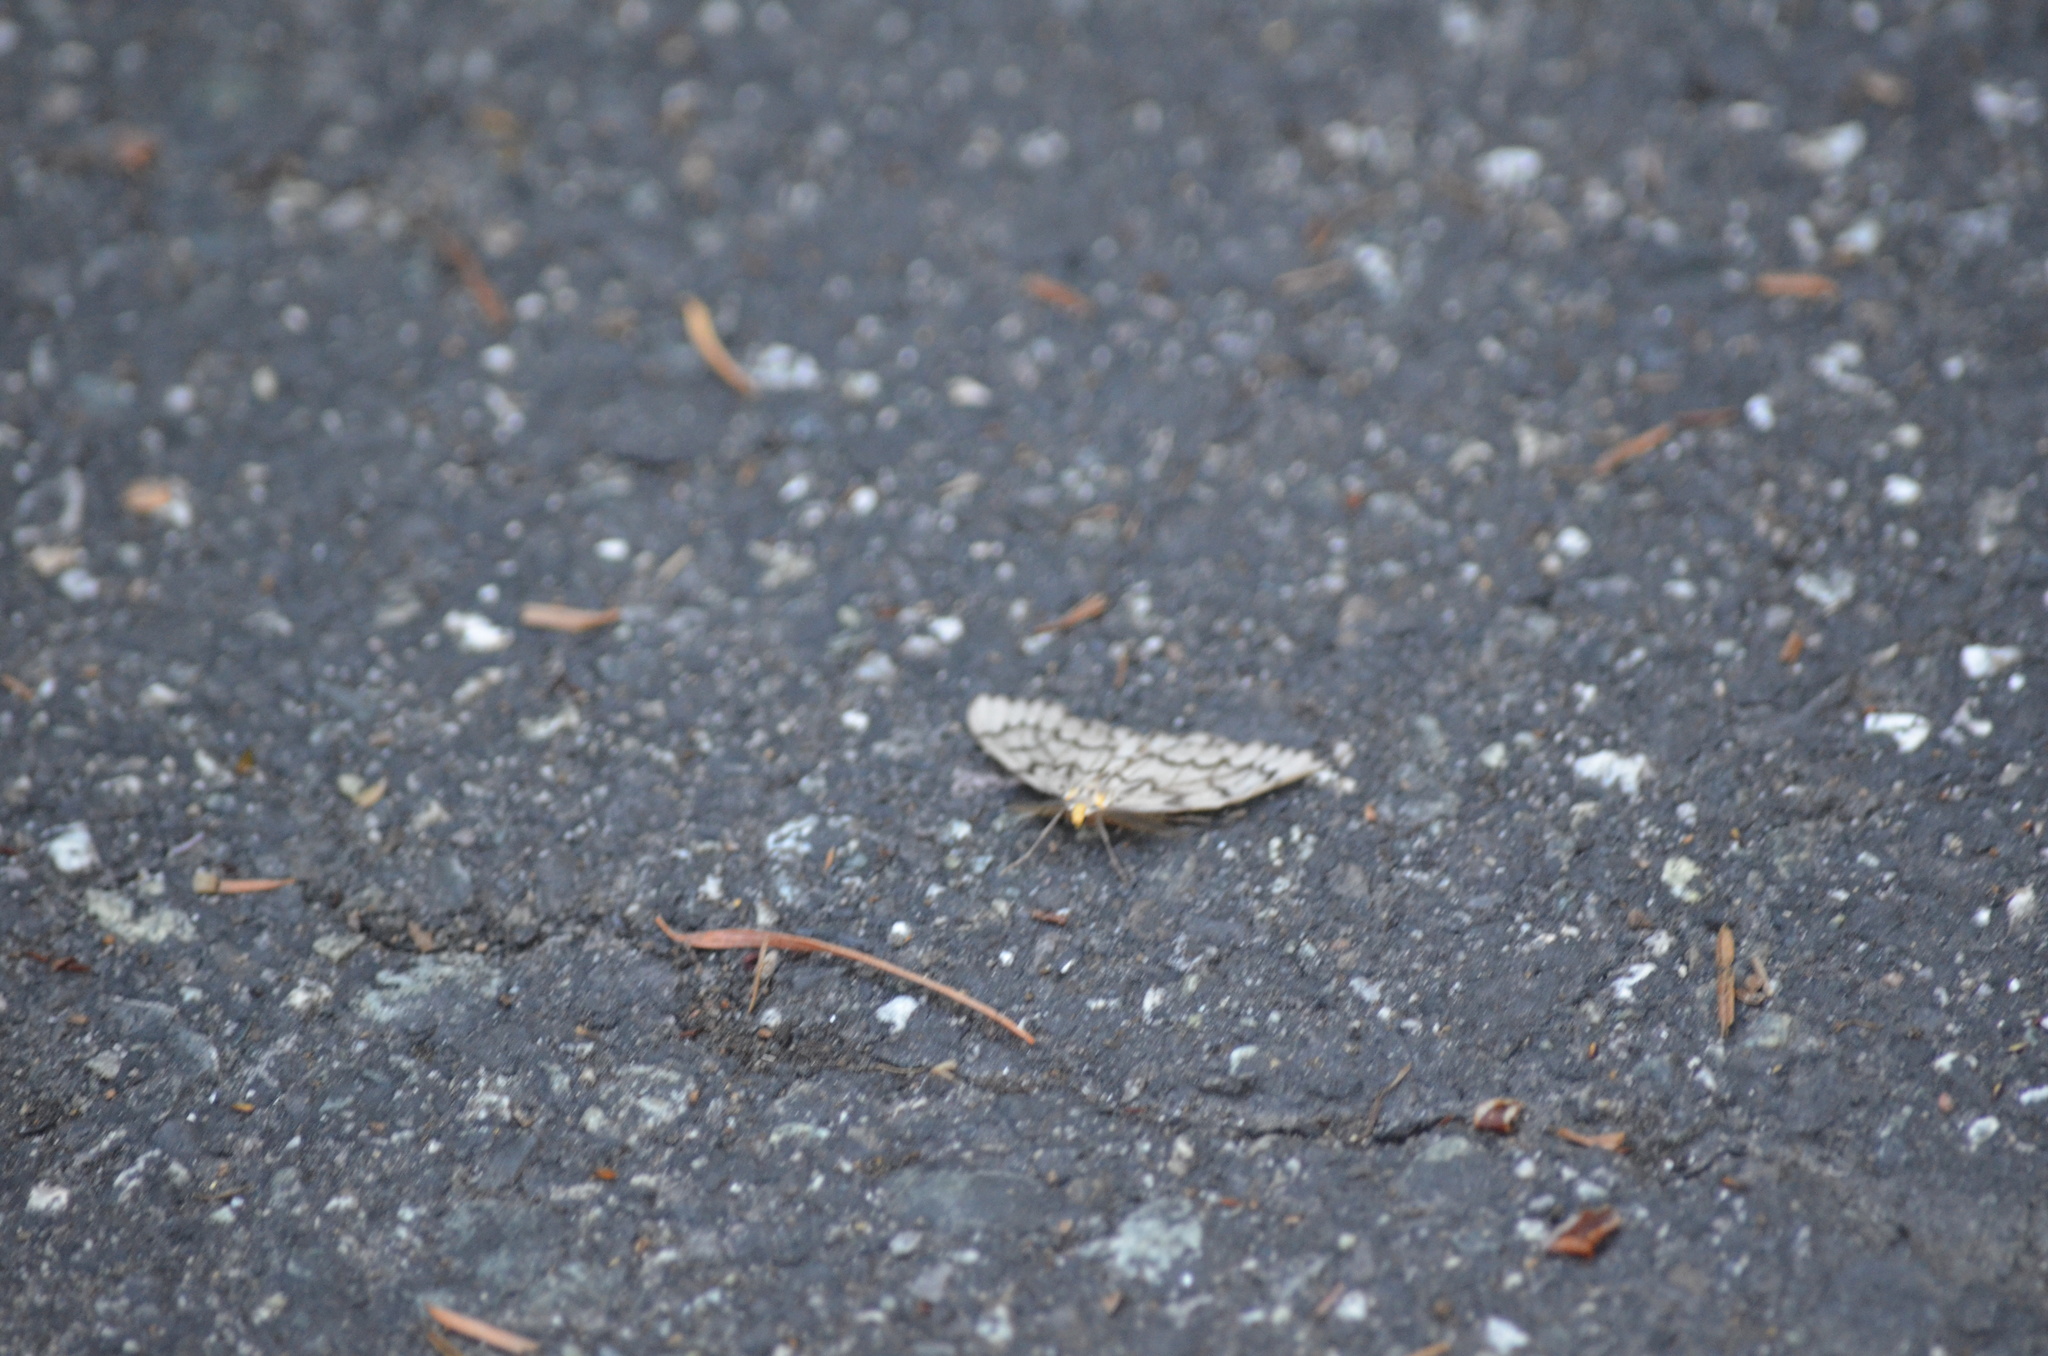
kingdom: Animalia
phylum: Arthropoda
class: Insecta
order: Lepidoptera
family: Geometridae
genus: Nepytia
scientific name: Nepytia phantasmaria
